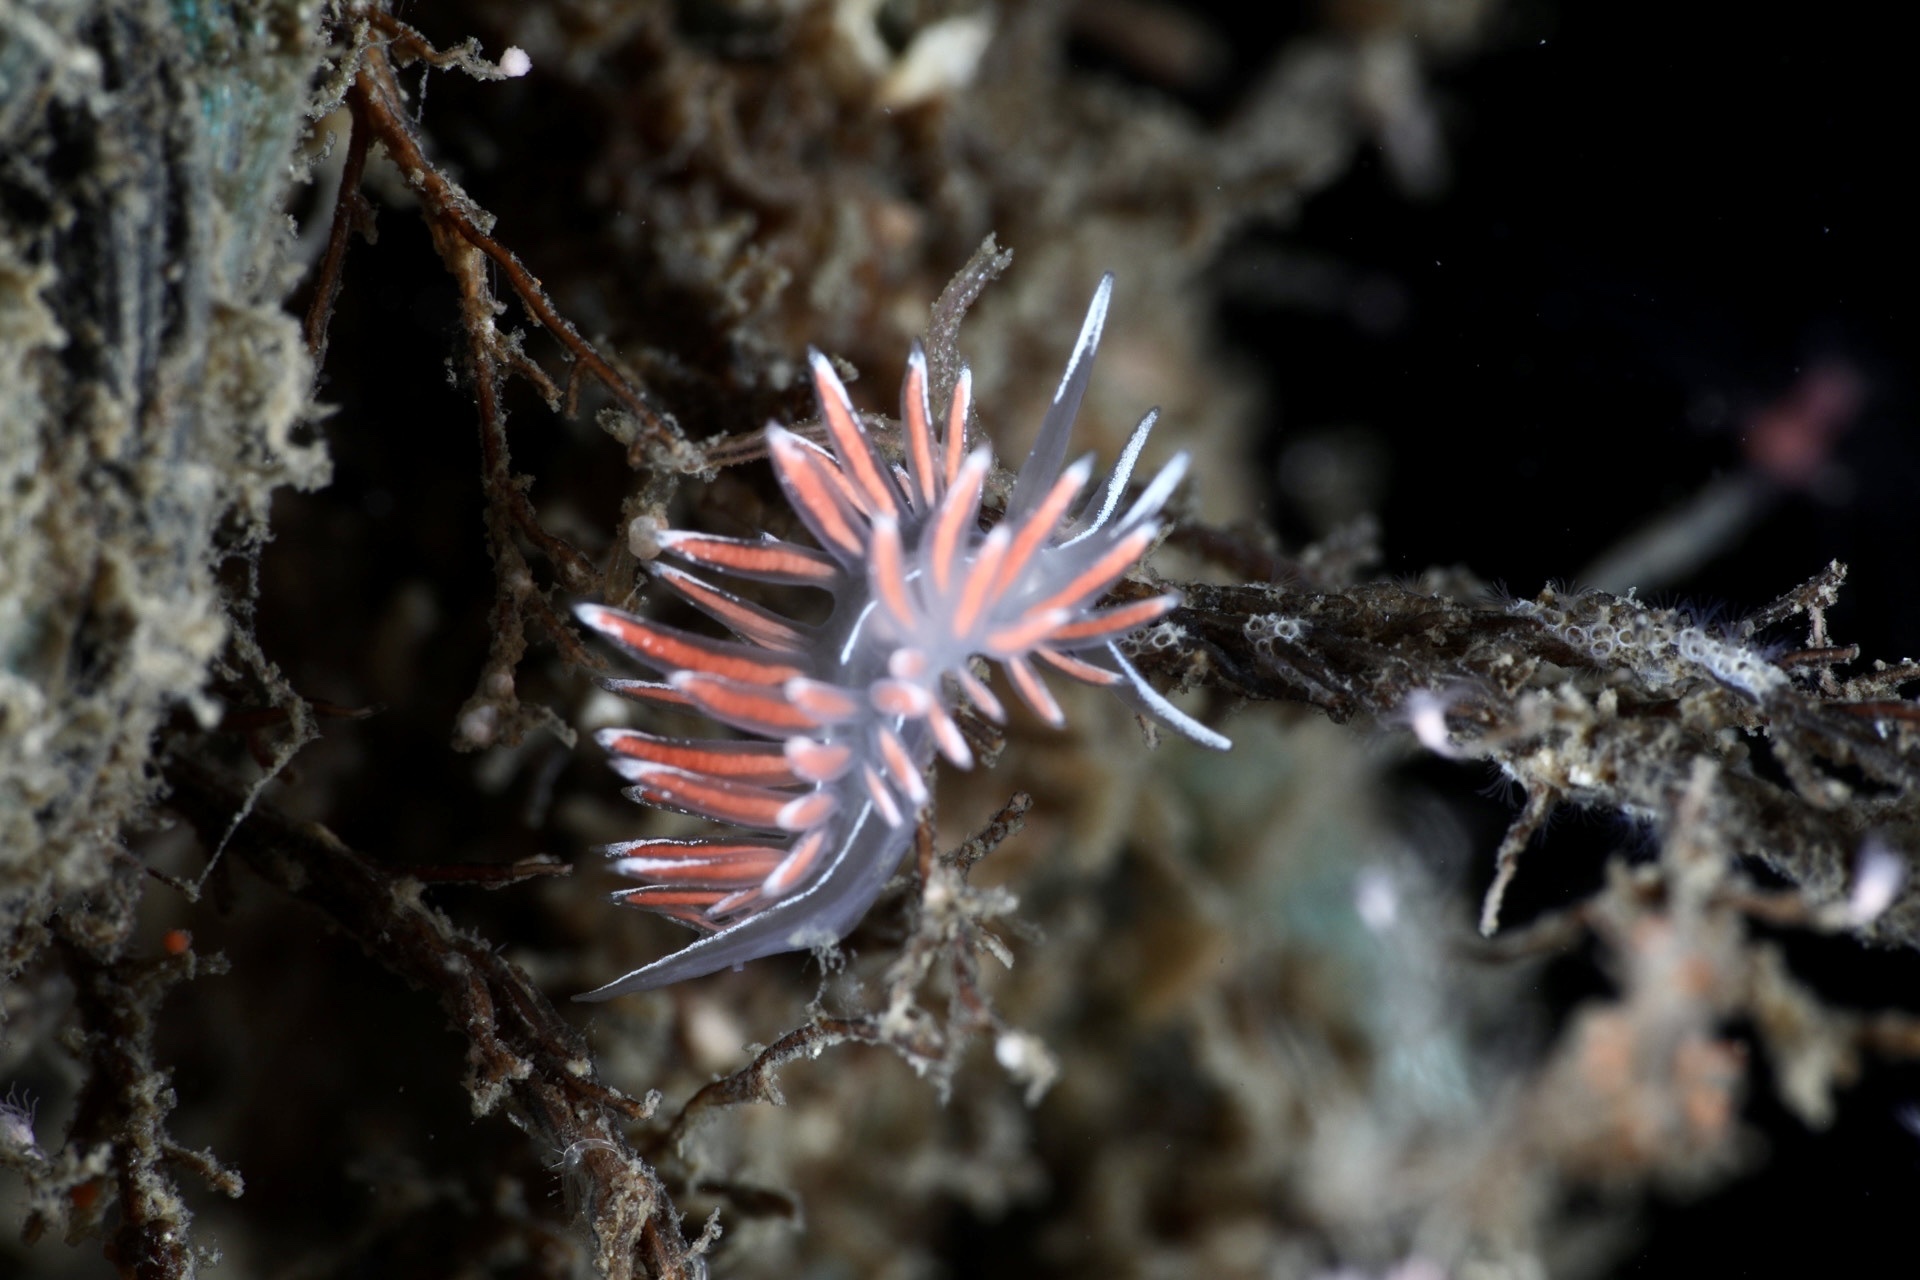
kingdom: Animalia
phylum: Mollusca
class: Gastropoda
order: Nudibranchia
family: Coryphellidae
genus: Coryphella
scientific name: Coryphella lineata
